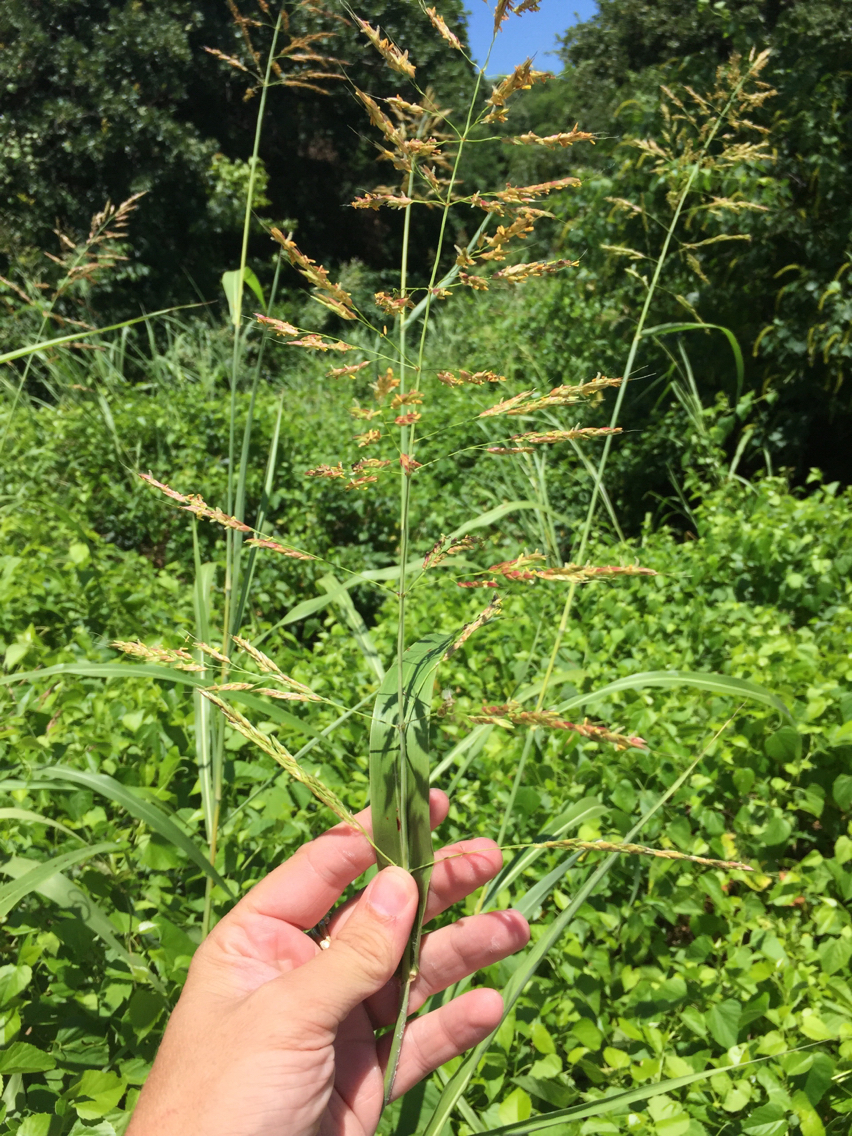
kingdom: Plantae
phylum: Tracheophyta
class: Liliopsida
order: Poales
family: Poaceae
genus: Sorghum
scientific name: Sorghum halepense
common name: Johnson-grass
